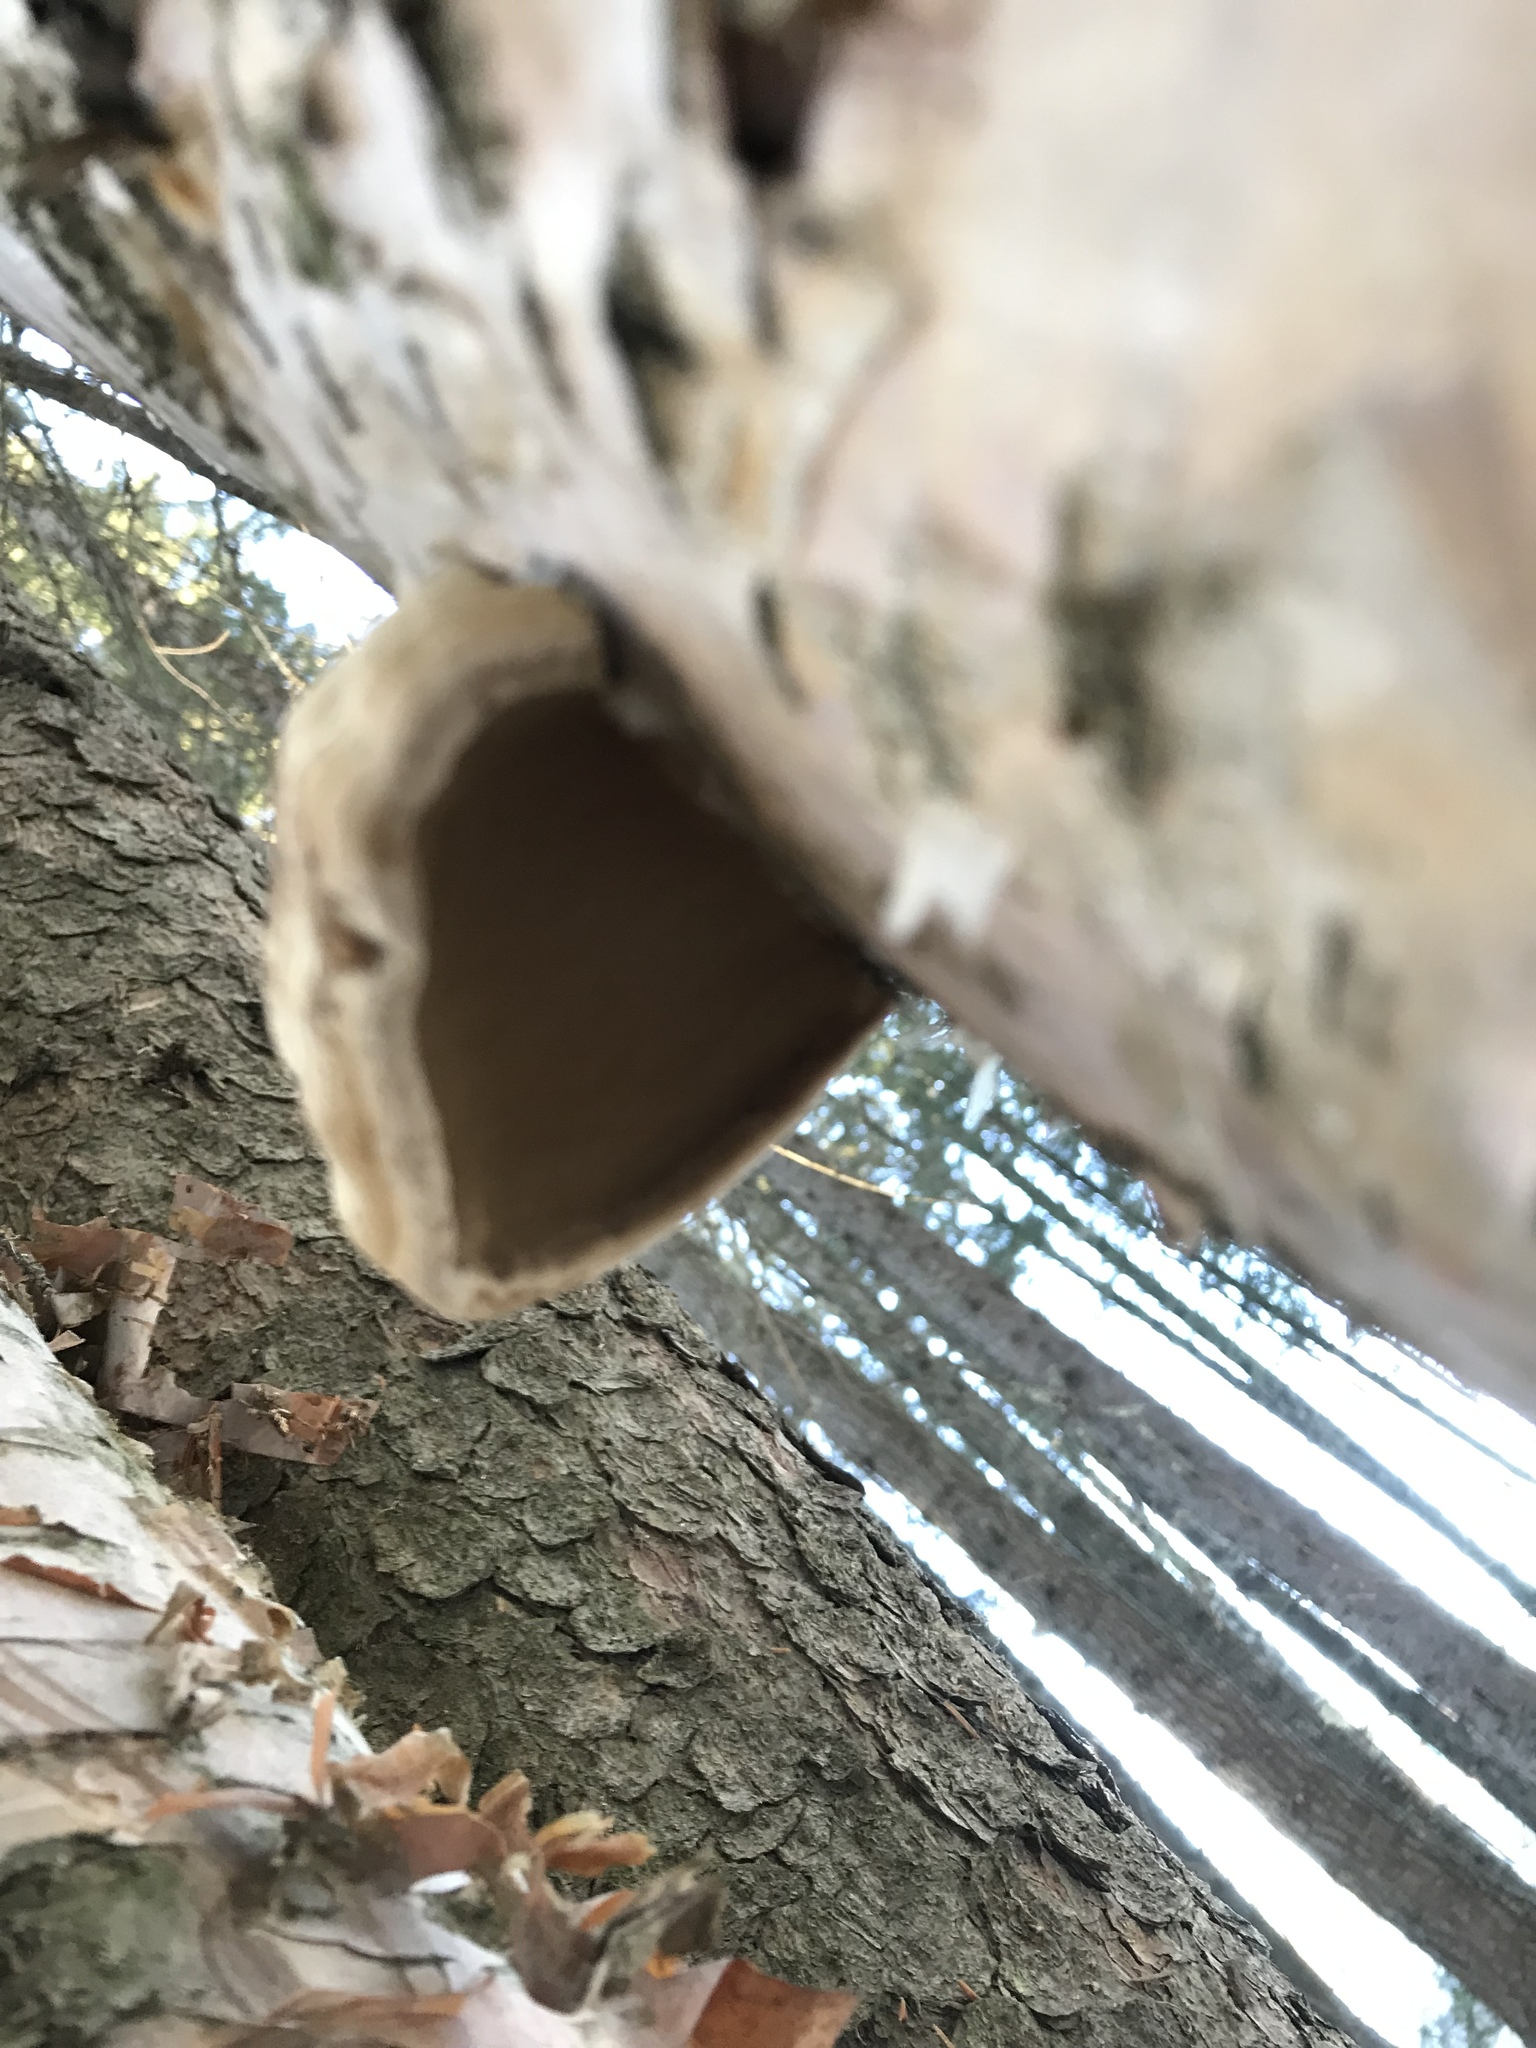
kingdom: Fungi
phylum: Basidiomycota
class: Agaricomycetes
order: Polyporales
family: Fomitopsidaceae
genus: Fomitopsis
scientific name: Fomitopsis betulina
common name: Birch polypore
